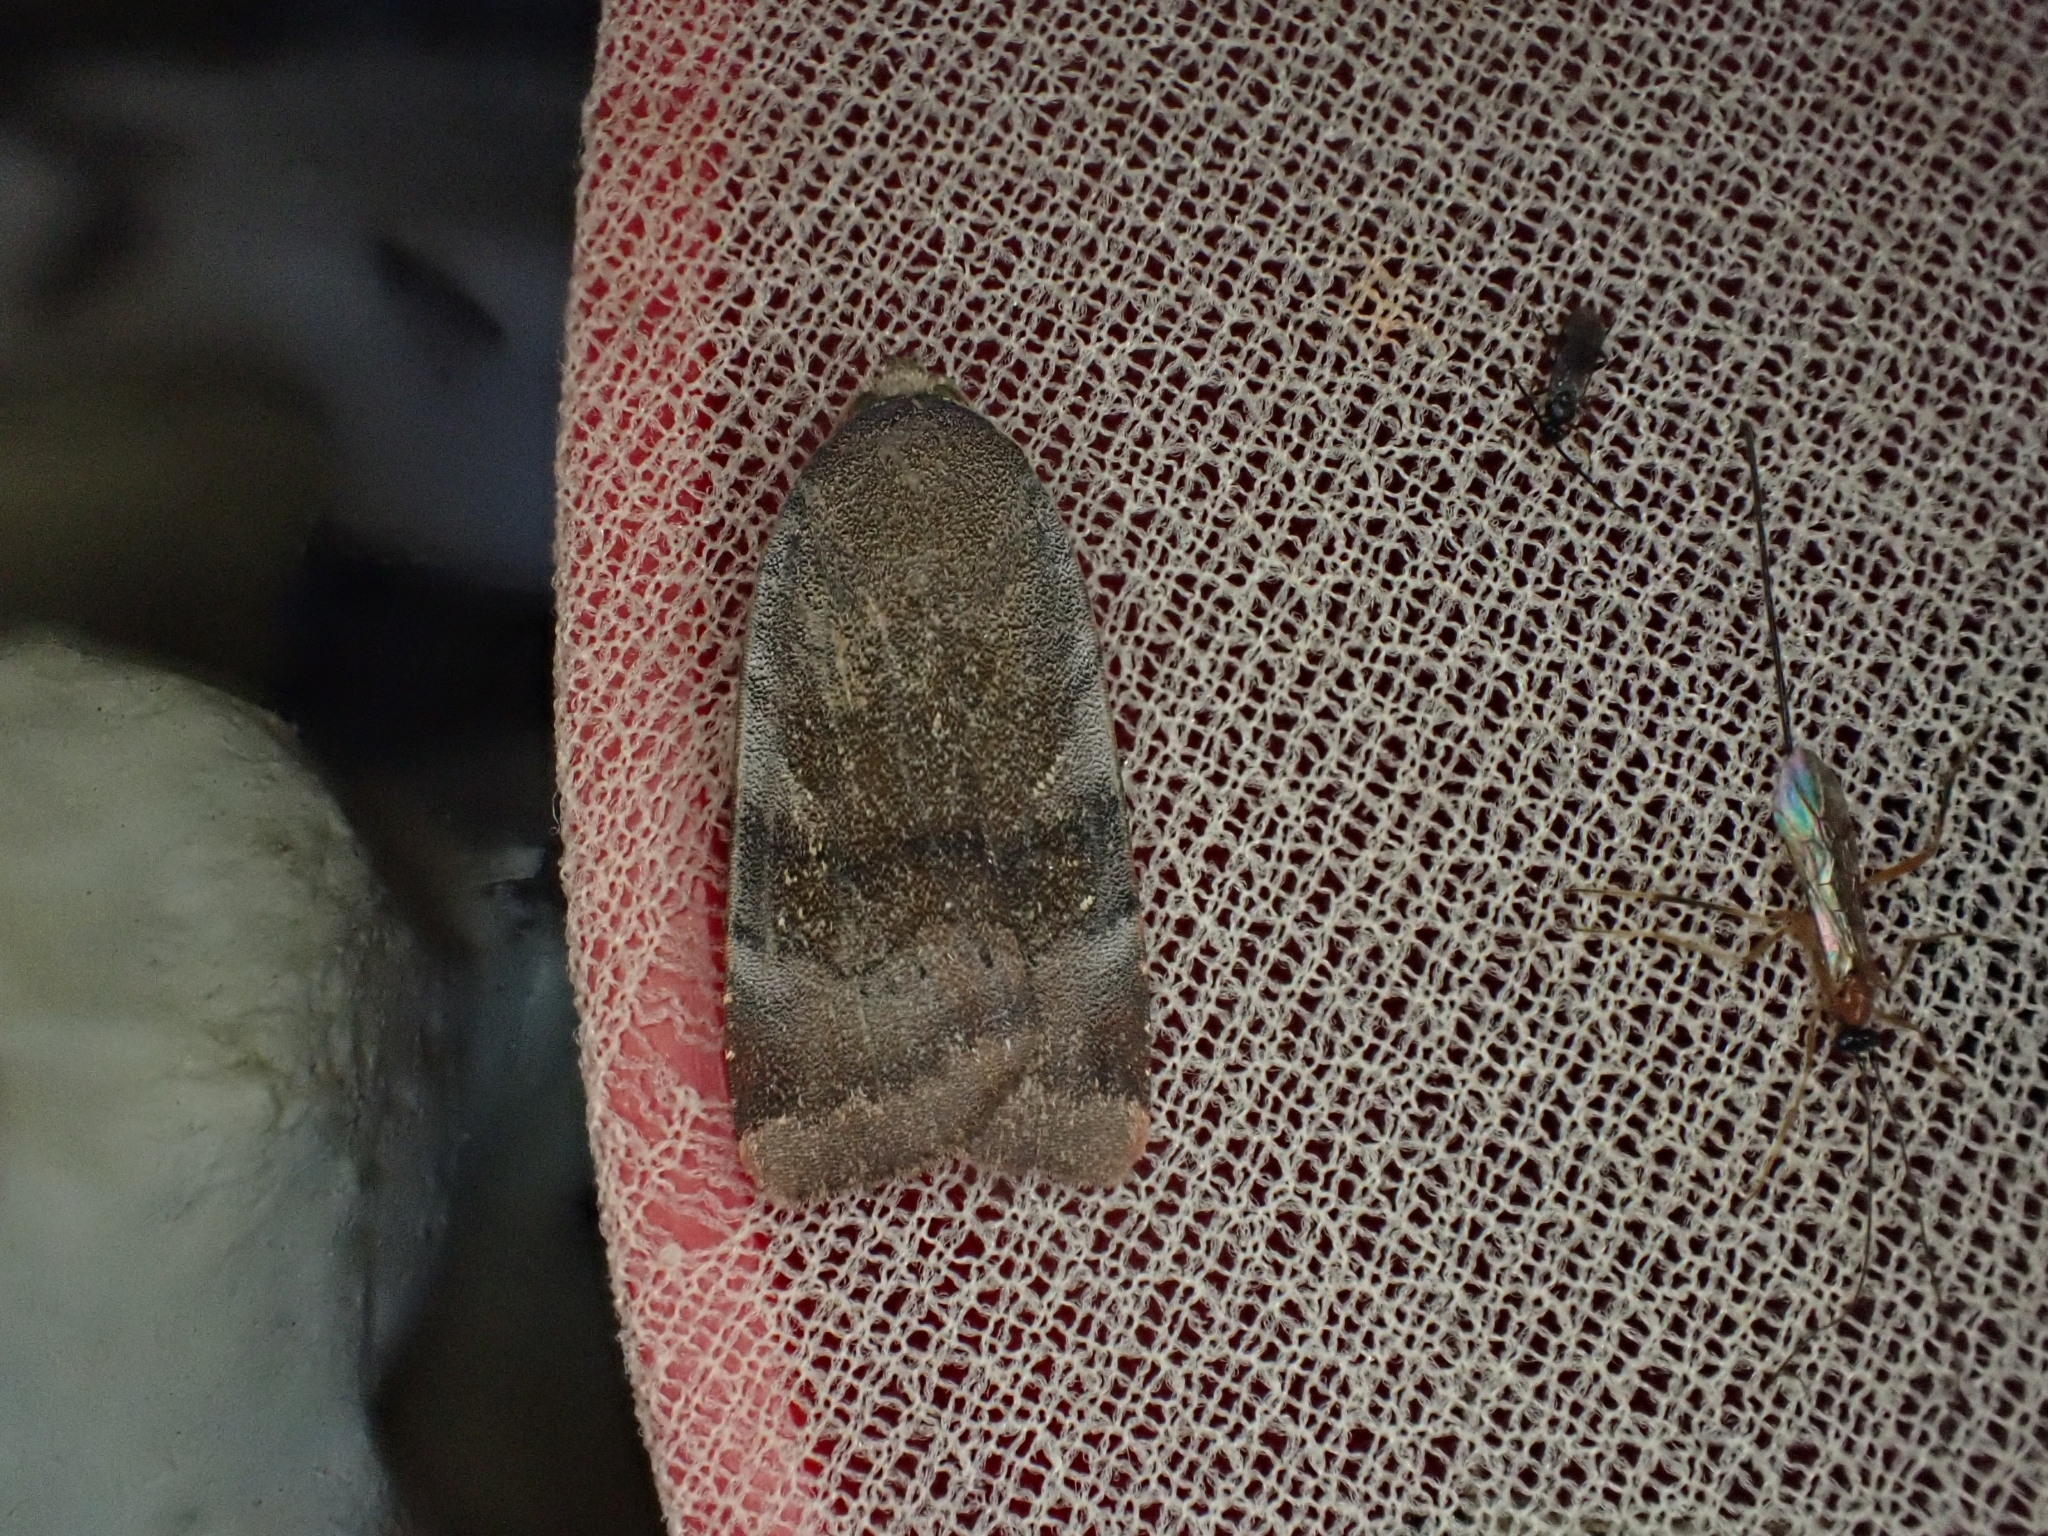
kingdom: Animalia
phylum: Arthropoda
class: Insecta
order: Lepidoptera
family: Noctuidae
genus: Noctua
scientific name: Noctua janthe
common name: Lesser broad-bordered yellow underwing
